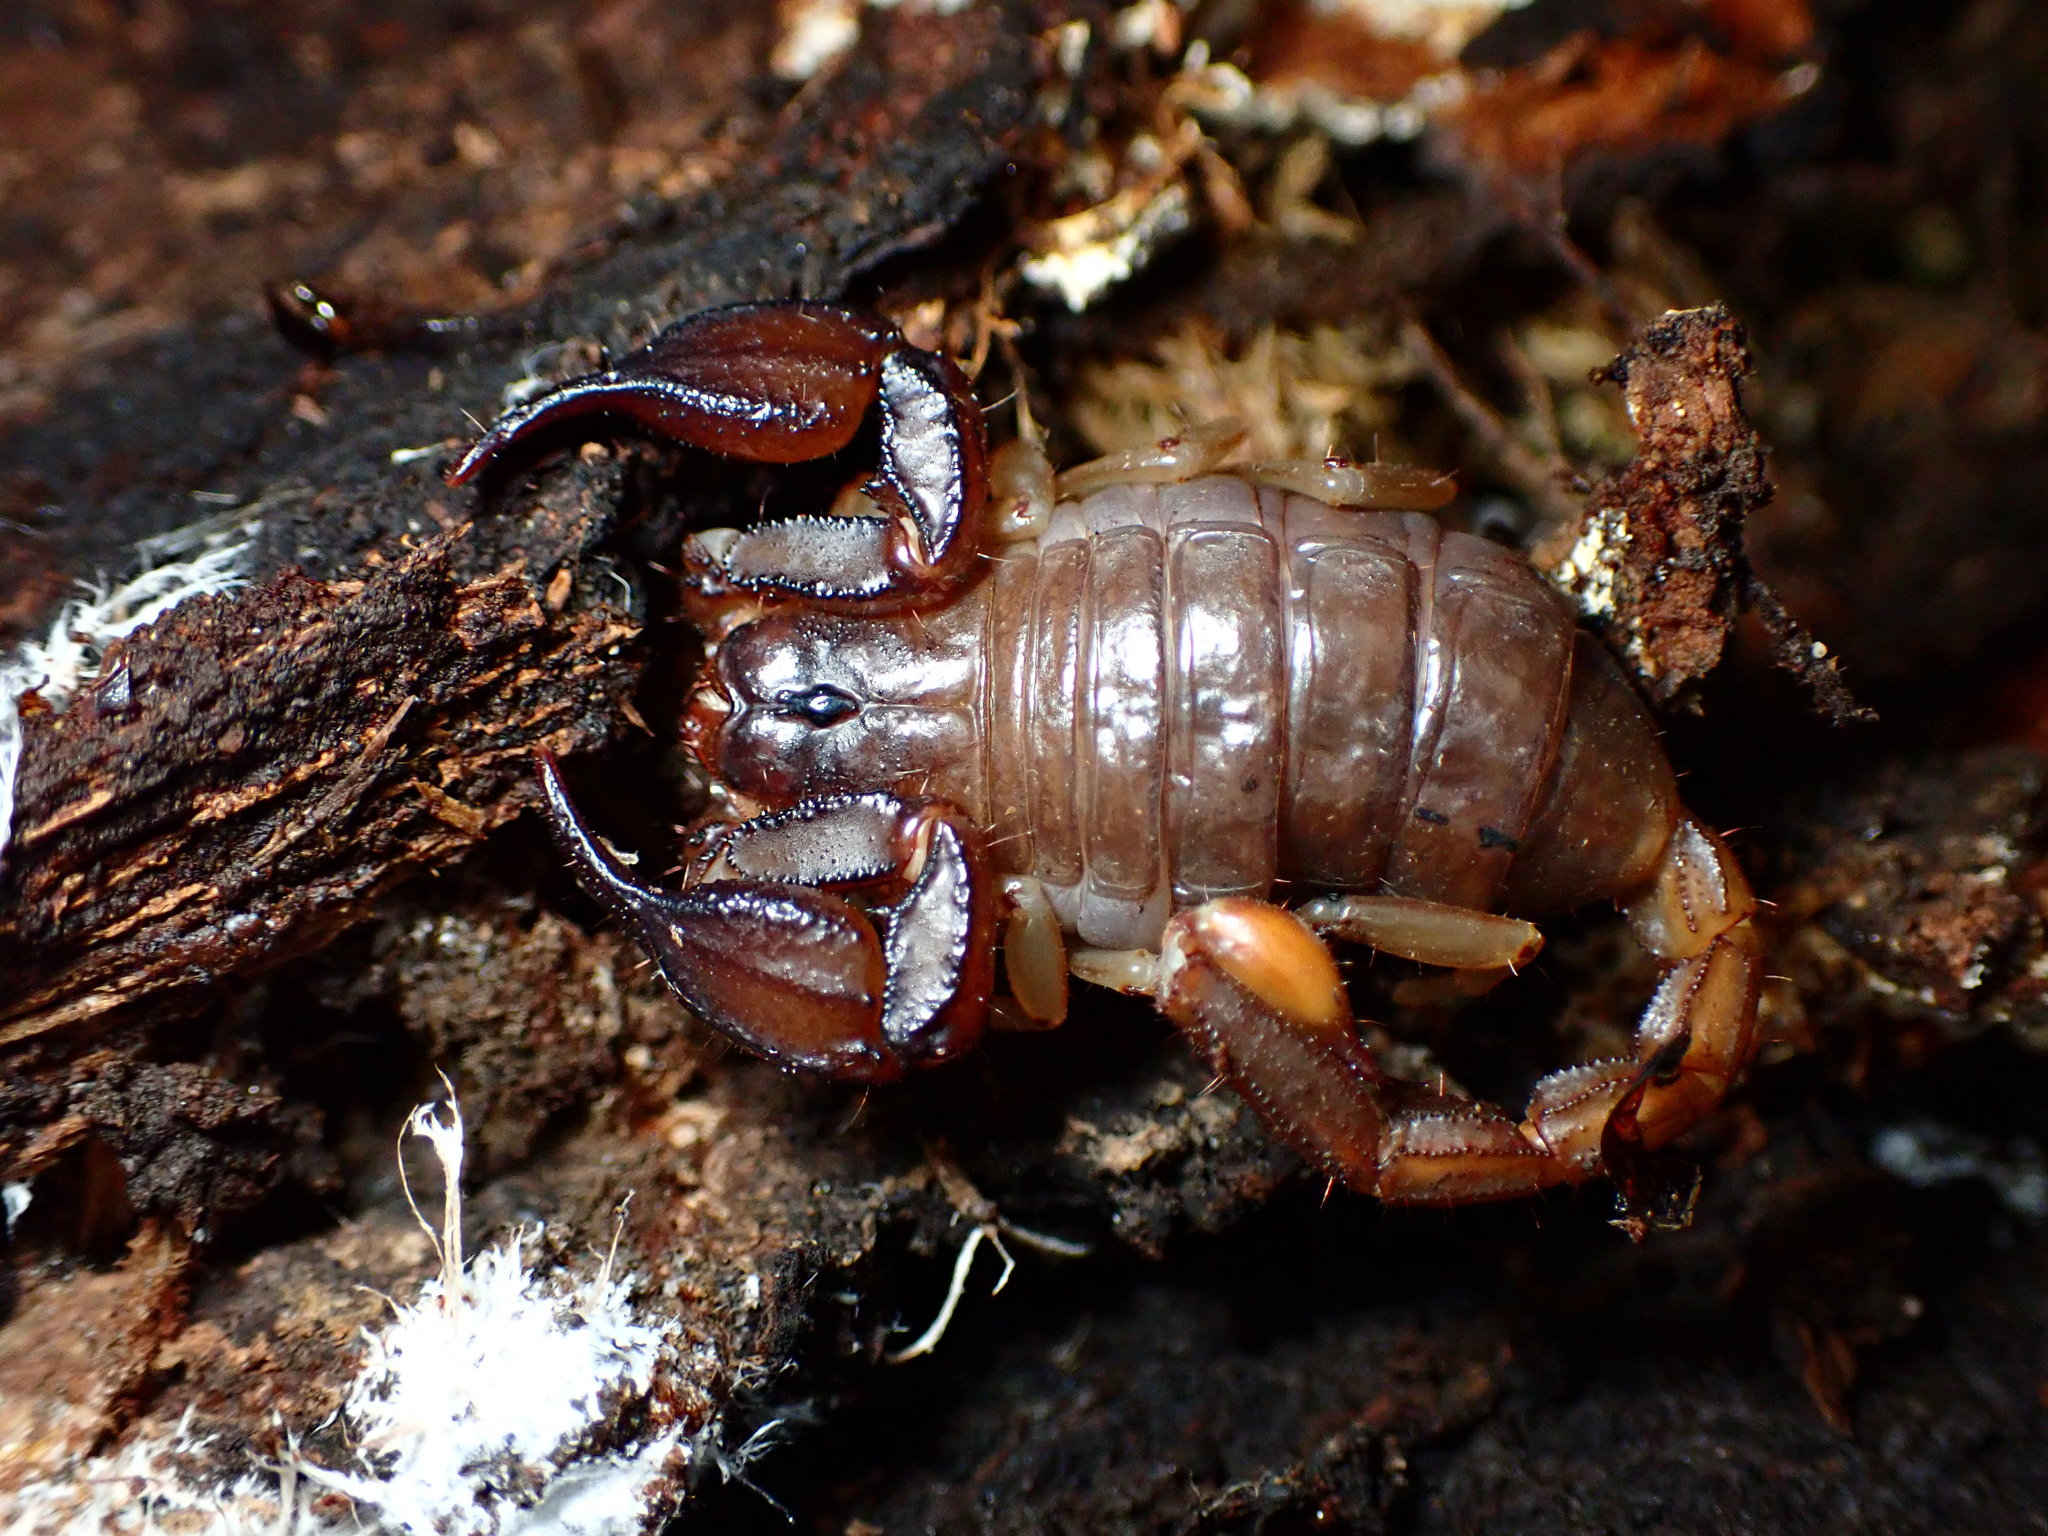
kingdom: Animalia
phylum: Arthropoda
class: Arachnida
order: Scorpiones
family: Chactidae
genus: Uroctonus
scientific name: Uroctonus mordax
